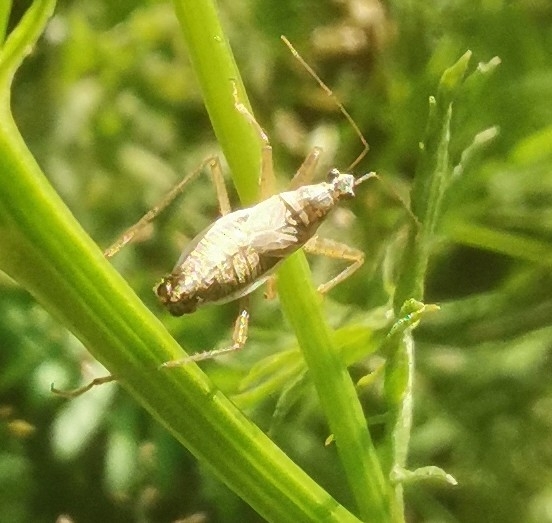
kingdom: Animalia
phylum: Arthropoda
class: Insecta
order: Hemiptera
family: Nabidae
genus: Nabis
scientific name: Nabis flavomarginatus
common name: Broad damselbug
